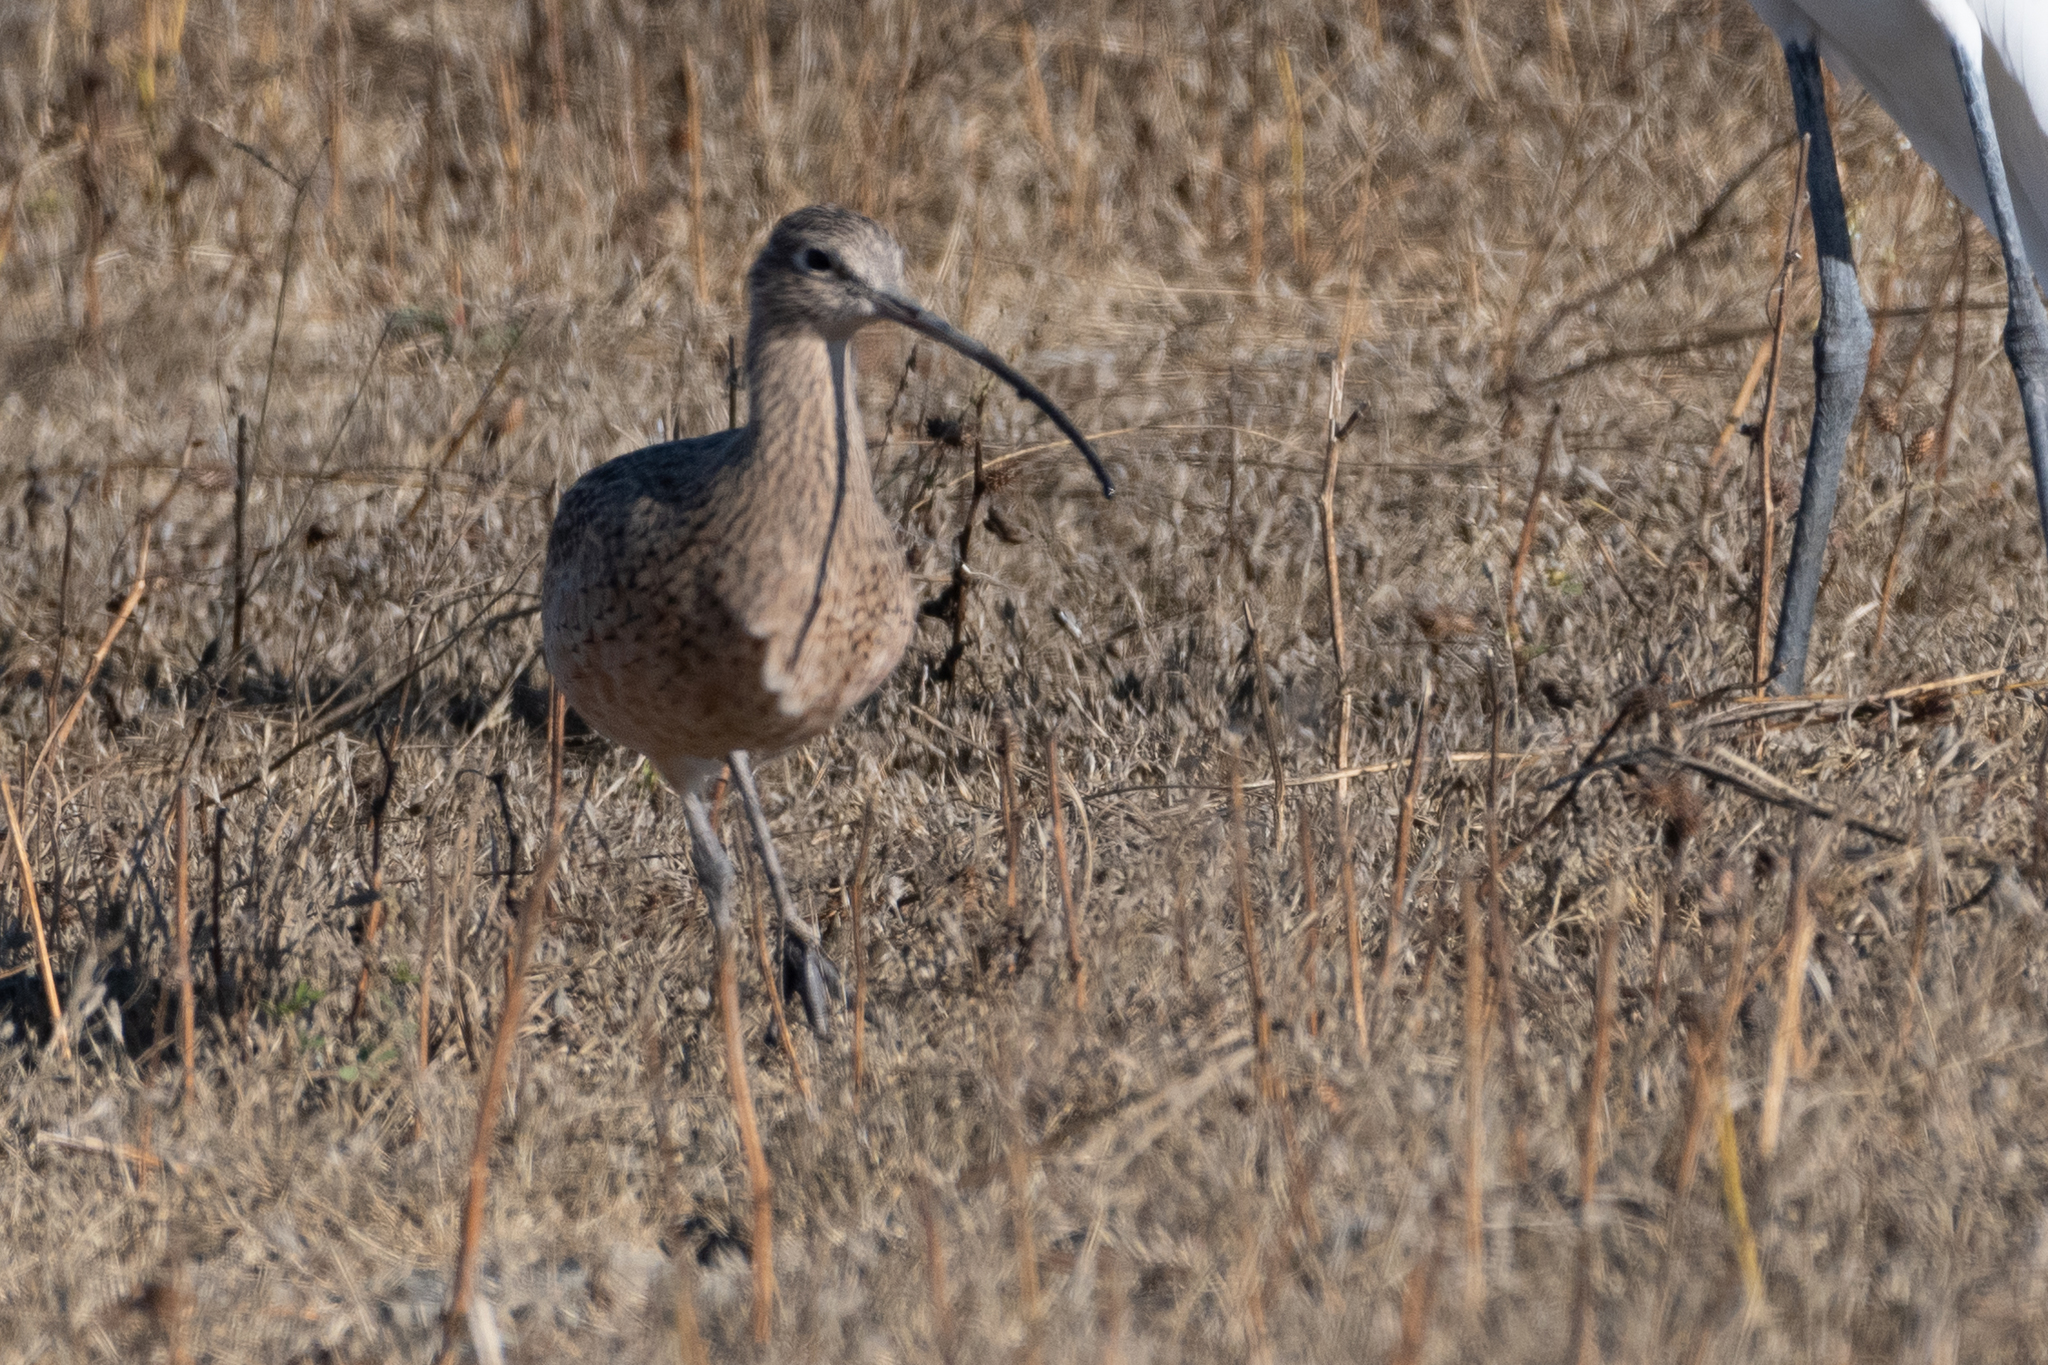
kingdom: Animalia
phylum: Chordata
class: Aves
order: Charadriiformes
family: Scolopacidae
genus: Numenius
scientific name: Numenius americanus
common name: Long-billed curlew
